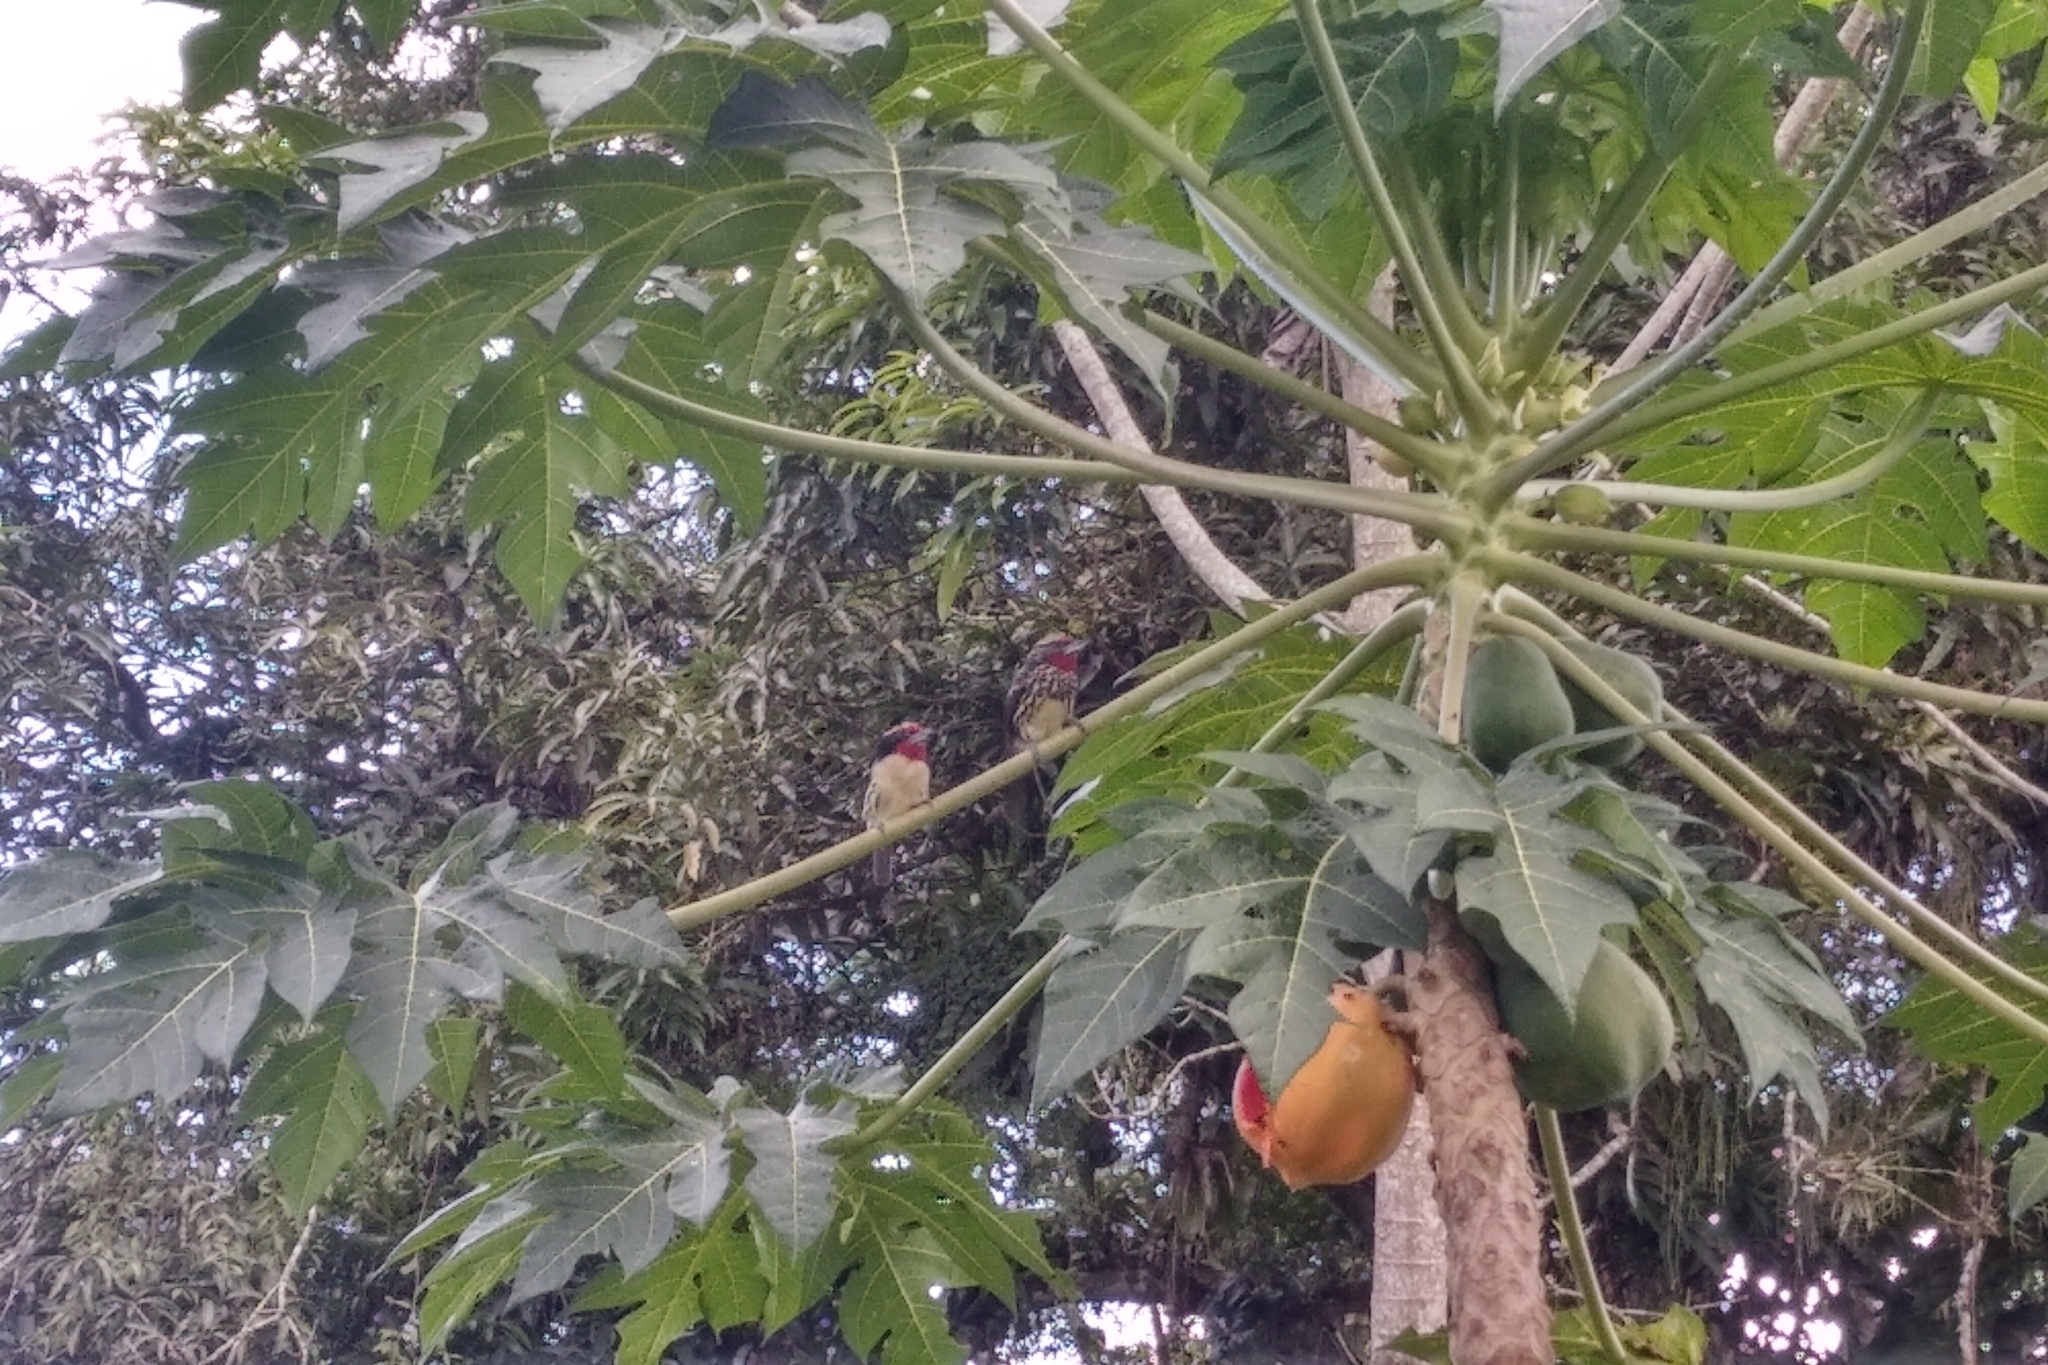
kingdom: Animalia
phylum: Chordata
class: Aves
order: Piciformes
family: Capitonidae
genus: Capito
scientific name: Capito niger
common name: Black-spotted barbet
